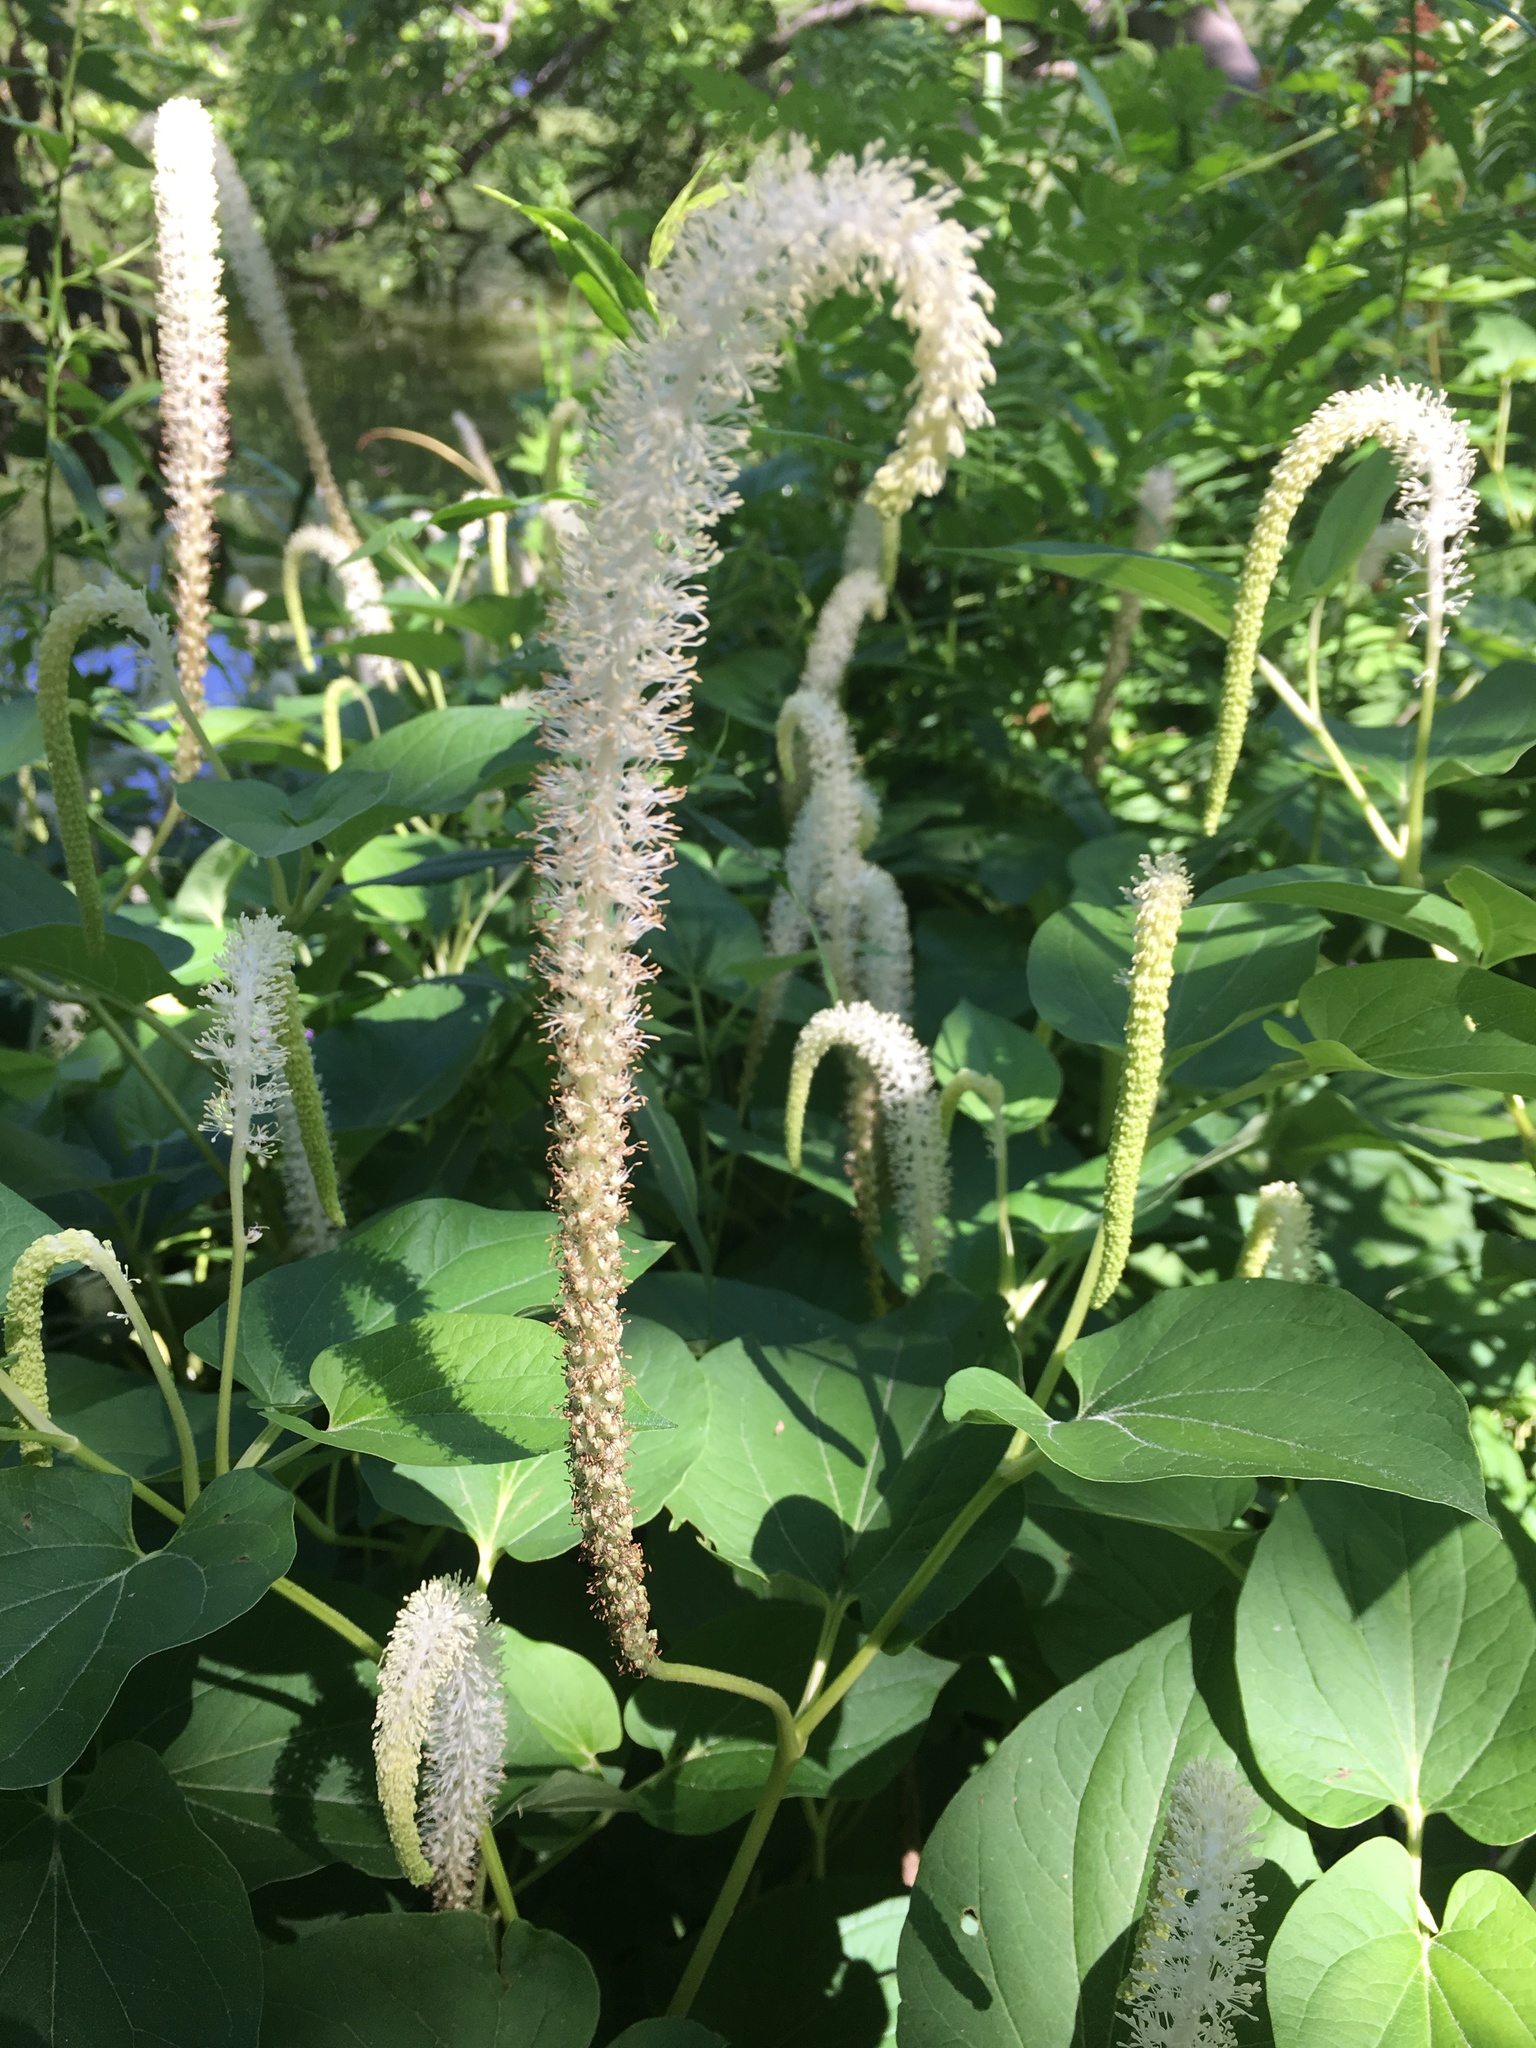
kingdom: Plantae
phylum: Tracheophyta
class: Magnoliopsida
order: Piperales
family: Saururaceae
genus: Saururus
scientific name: Saururus cernuus
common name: Lizard's-tail
